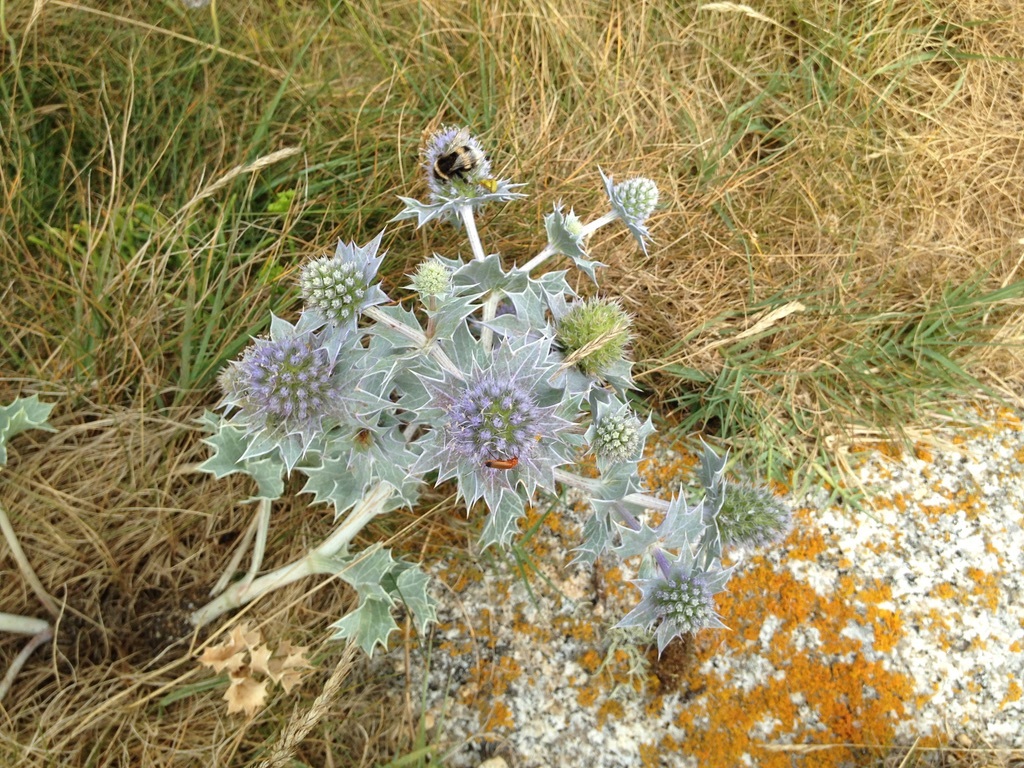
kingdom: Plantae
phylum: Tracheophyta
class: Magnoliopsida
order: Apiales
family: Apiaceae
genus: Eryngium
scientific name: Eryngium maritimum
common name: Sea-holly
